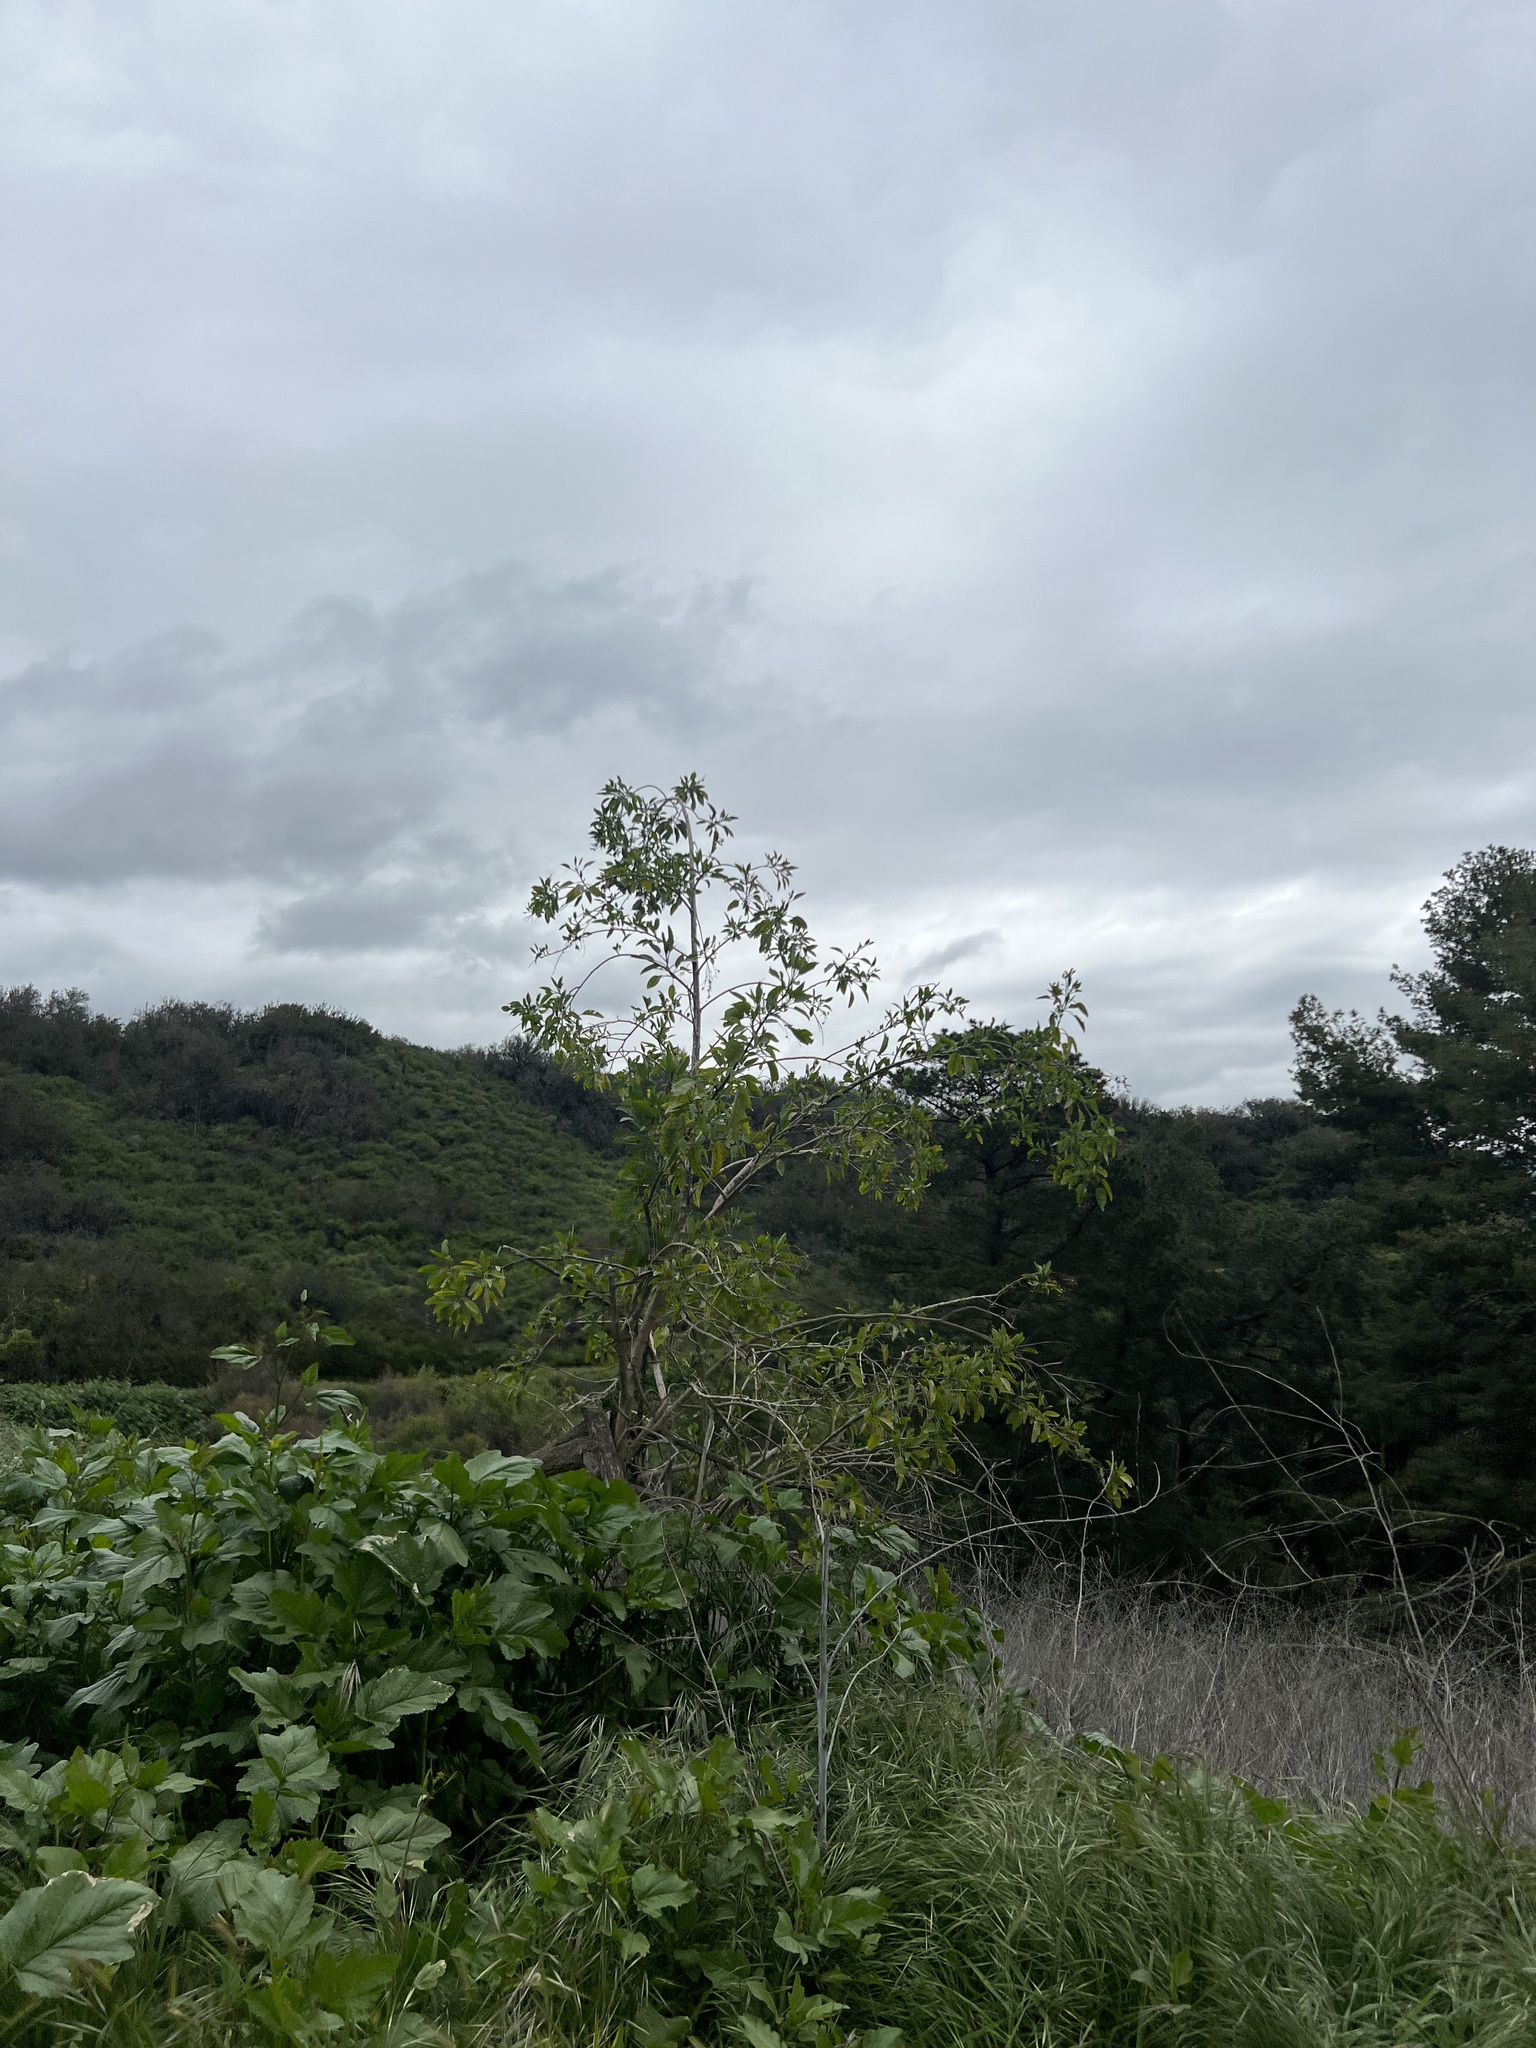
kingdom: Plantae
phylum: Tracheophyta
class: Magnoliopsida
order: Solanales
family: Solanaceae
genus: Nicotiana
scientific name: Nicotiana glauca
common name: Tree tobacco
